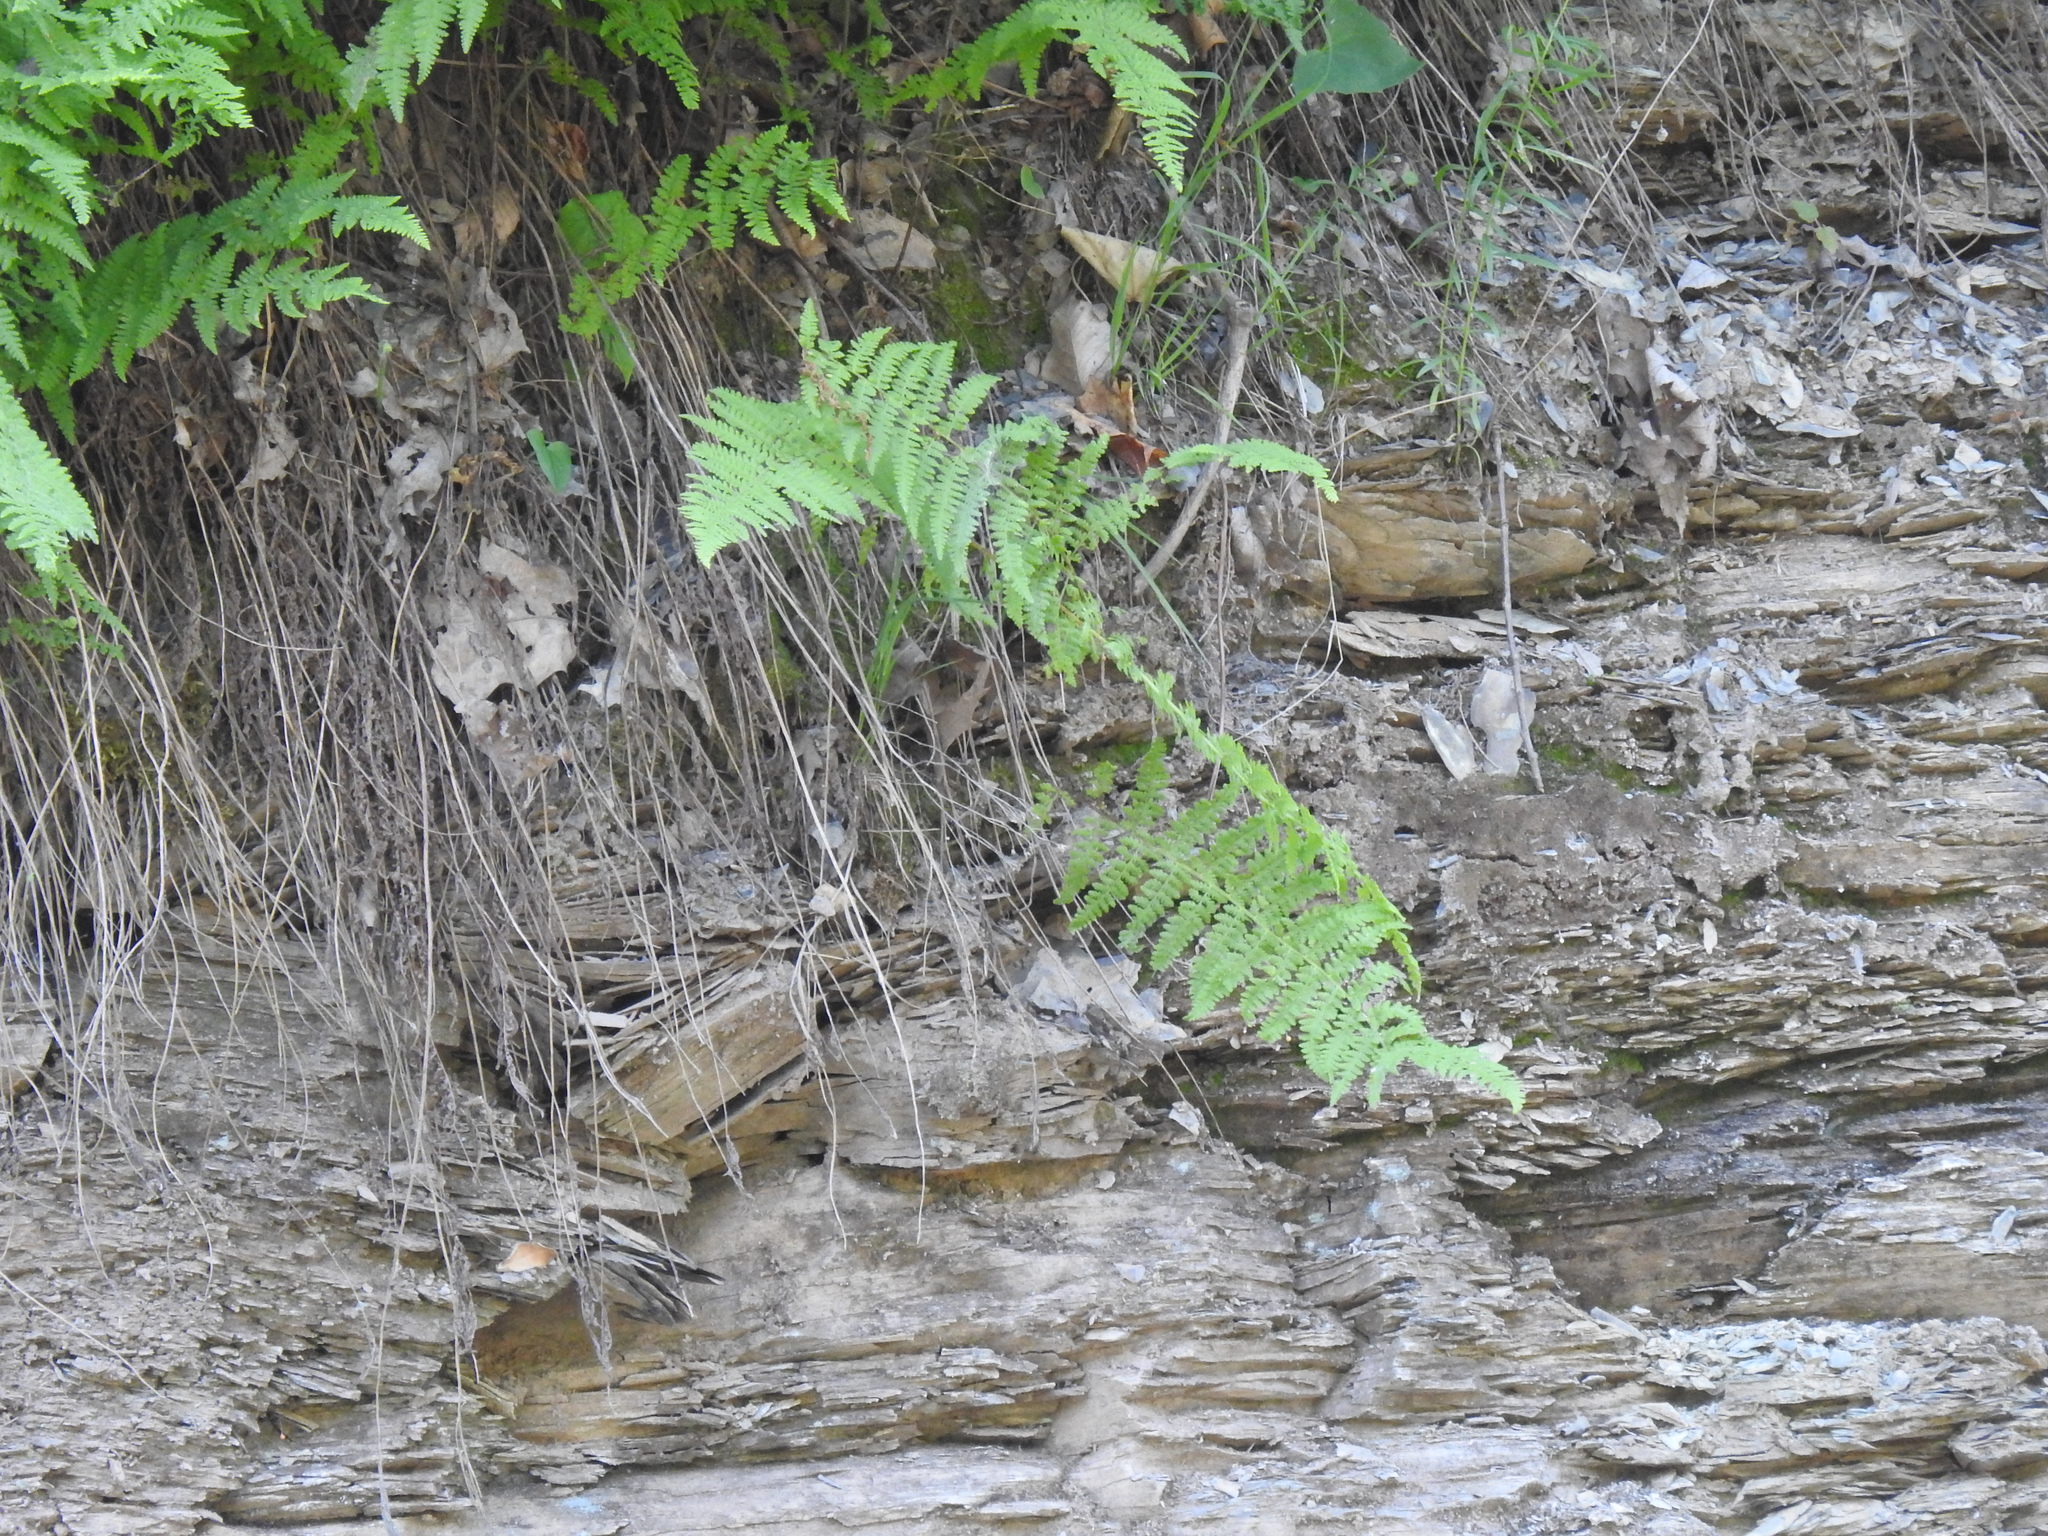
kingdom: Plantae
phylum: Tracheophyta
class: Polypodiopsida
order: Polypodiales
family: Dennstaedtiaceae
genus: Sitobolium
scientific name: Sitobolium punctilobum
